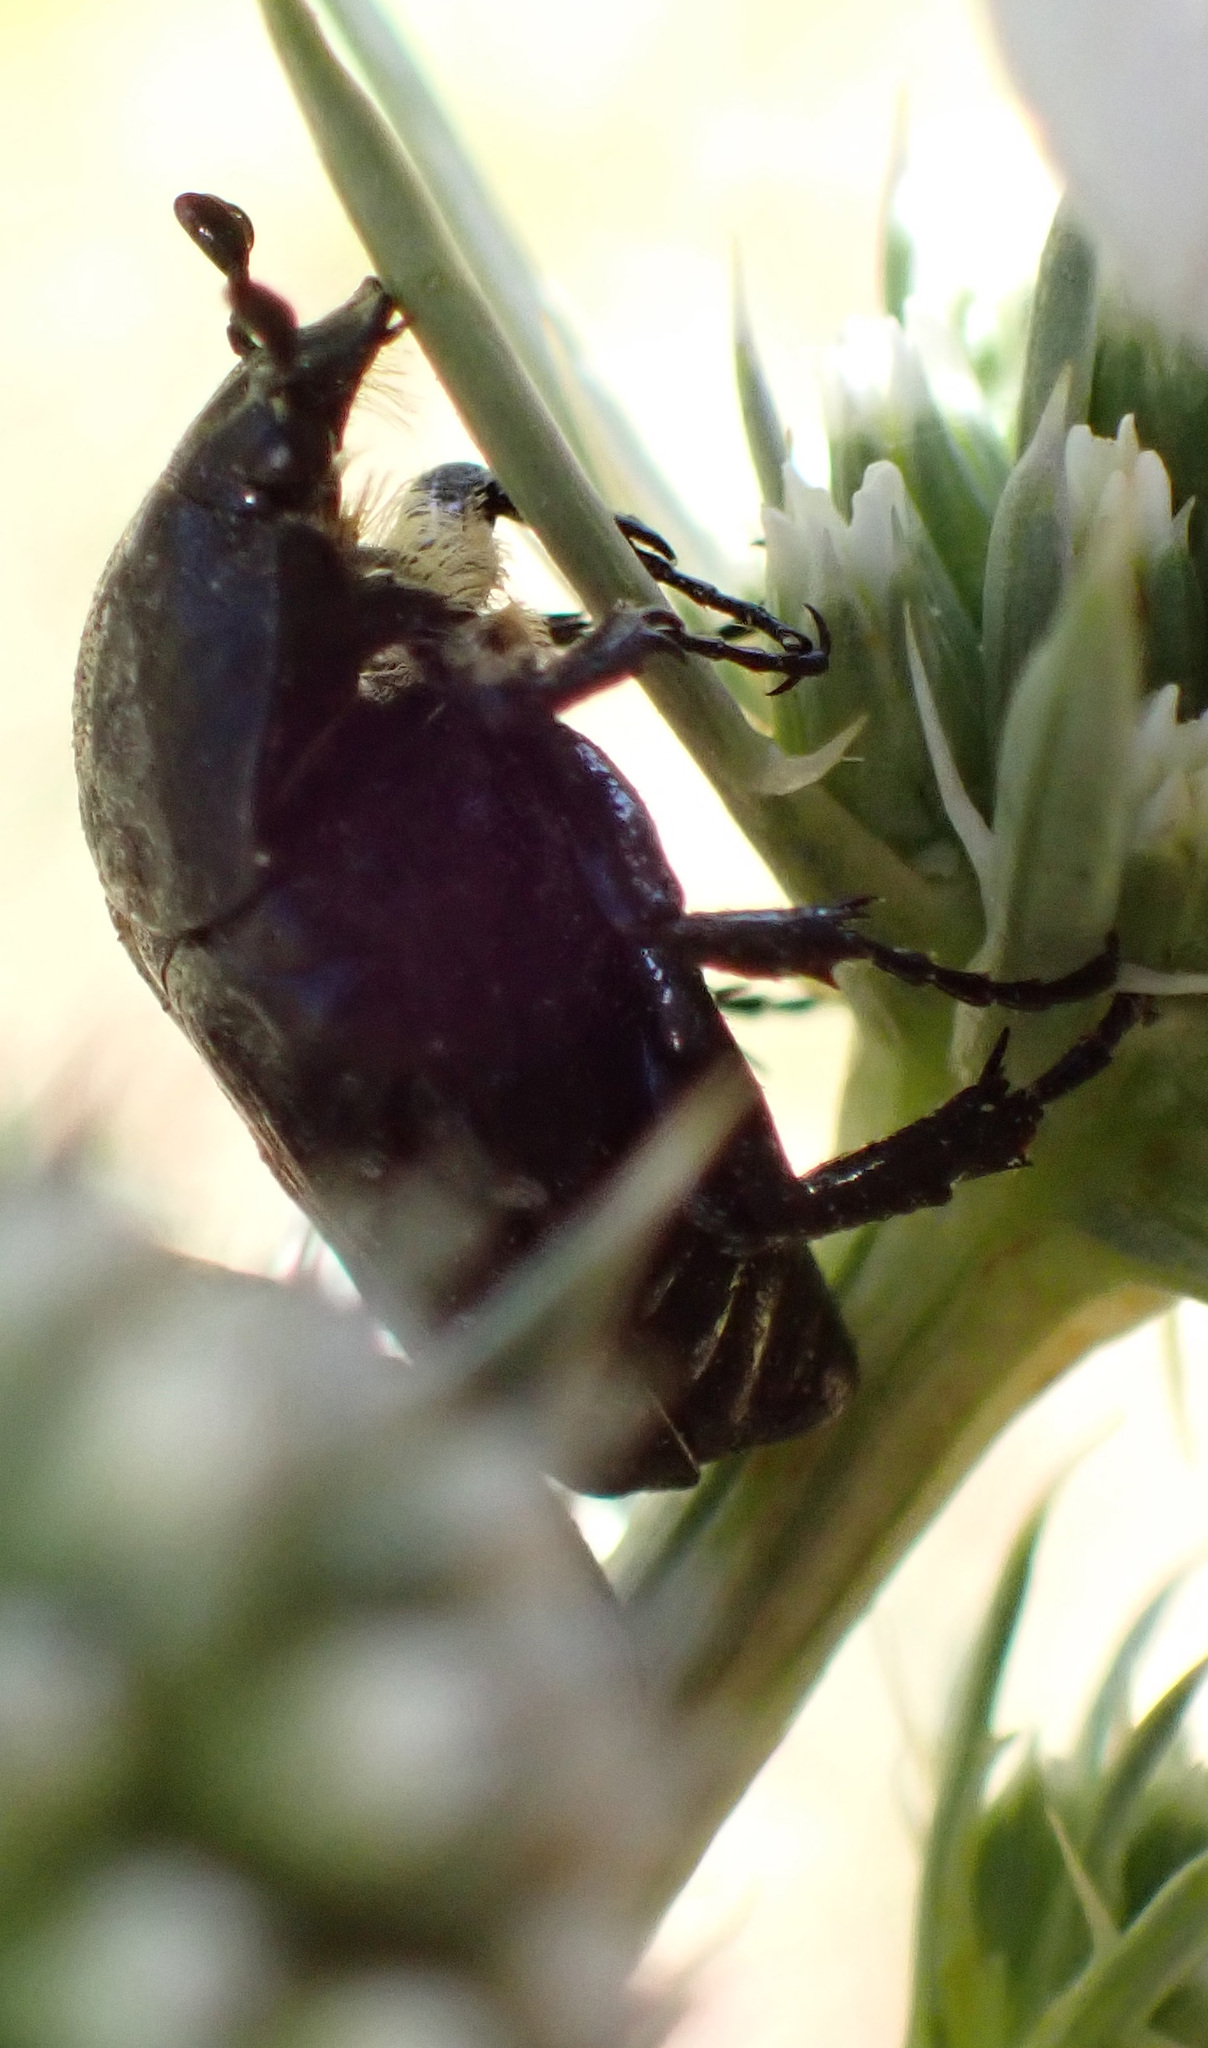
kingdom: Animalia
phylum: Arthropoda
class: Insecta
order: Coleoptera
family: Scarabaeidae
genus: Oxythyrea
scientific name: Oxythyrea funesta
